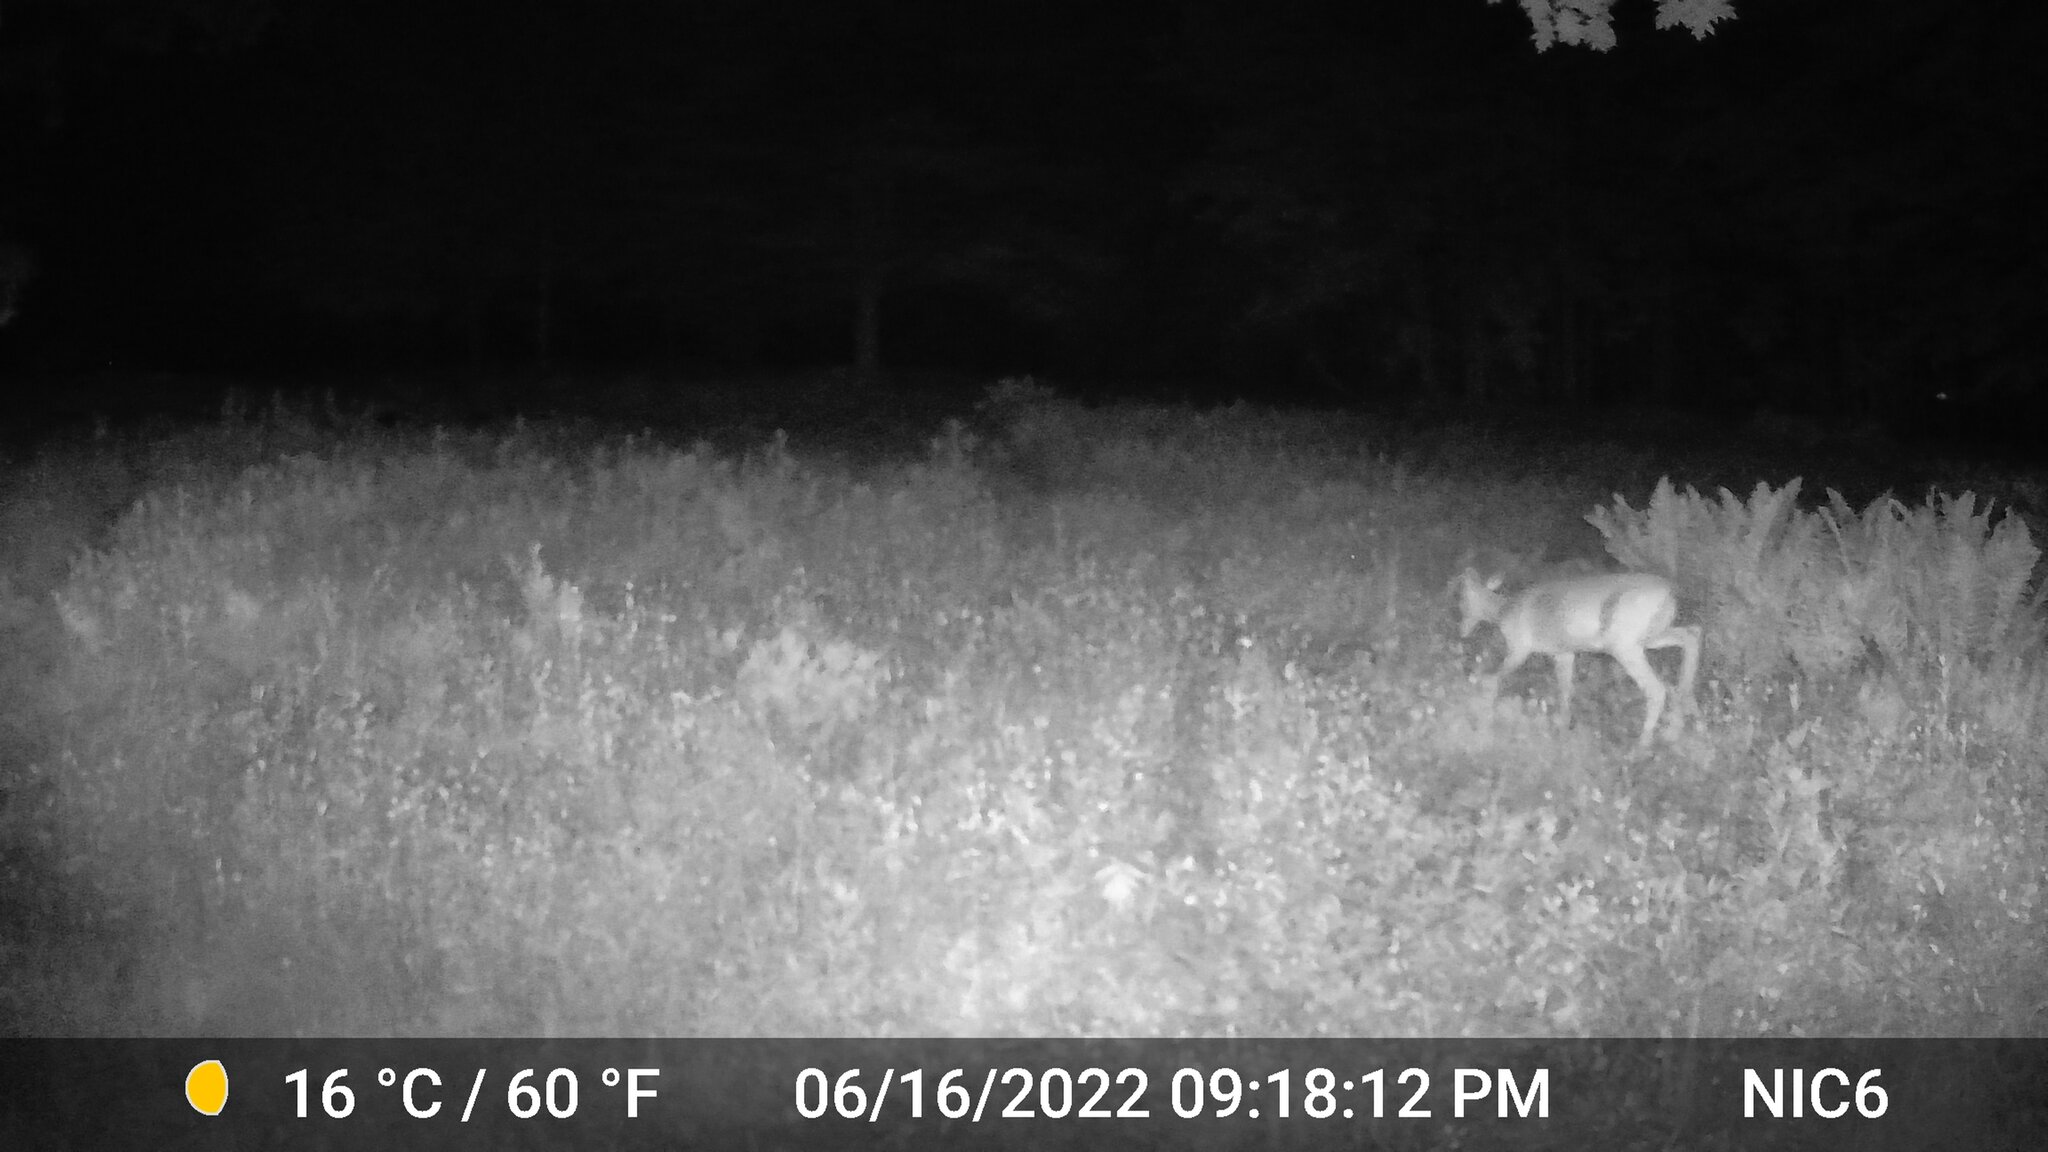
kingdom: Animalia
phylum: Chordata
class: Mammalia
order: Artiodactyla
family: Cervidae
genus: Odocoileus
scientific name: Odocoileus virginianus
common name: White-tailed deer
